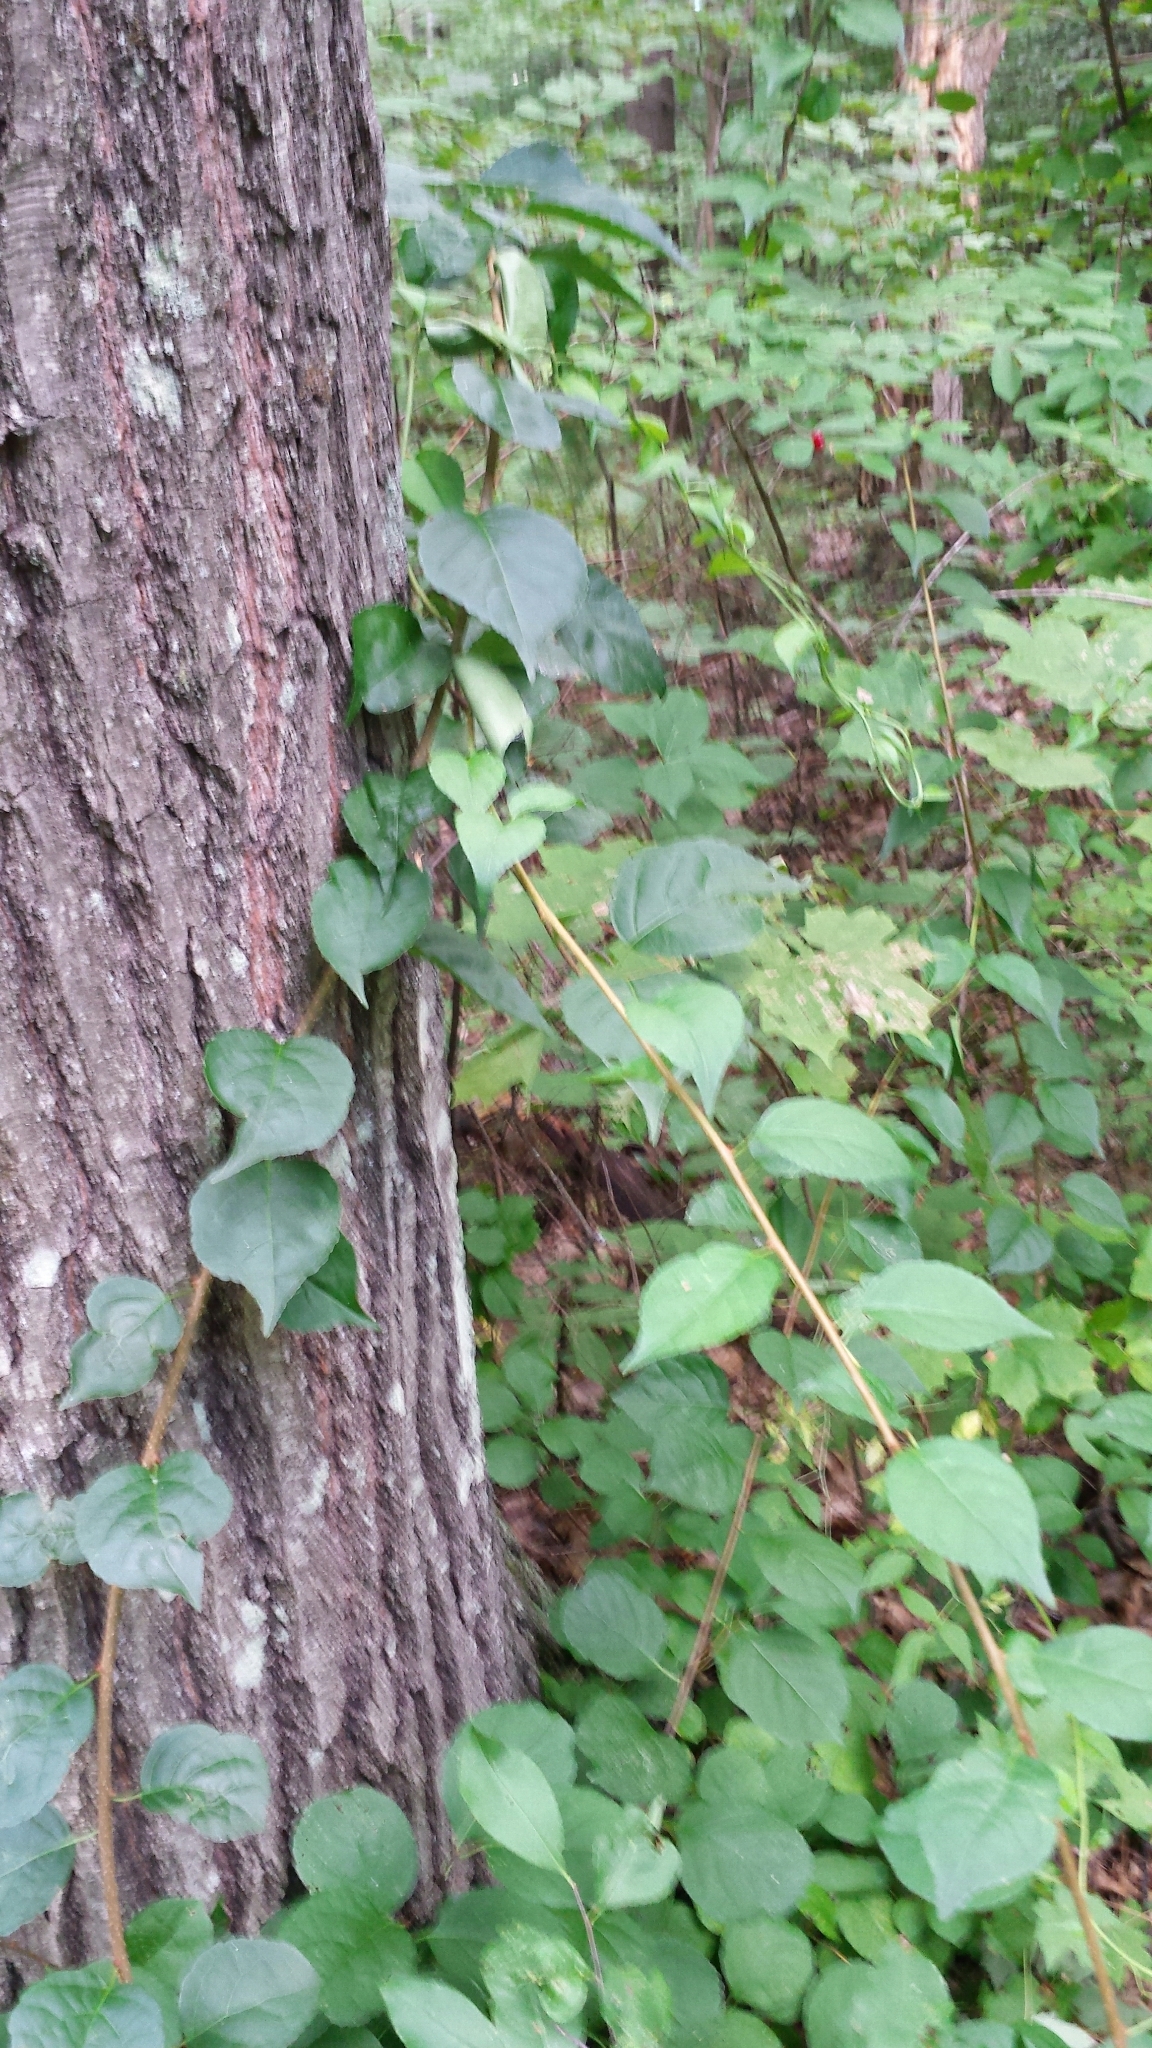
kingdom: Plantae
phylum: Tracheophyta
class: Magnoliopsida
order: Celastrales
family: Celastraceae
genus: Celastrus
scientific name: Celastrus orbiculatus
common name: Oriental bittersweet
